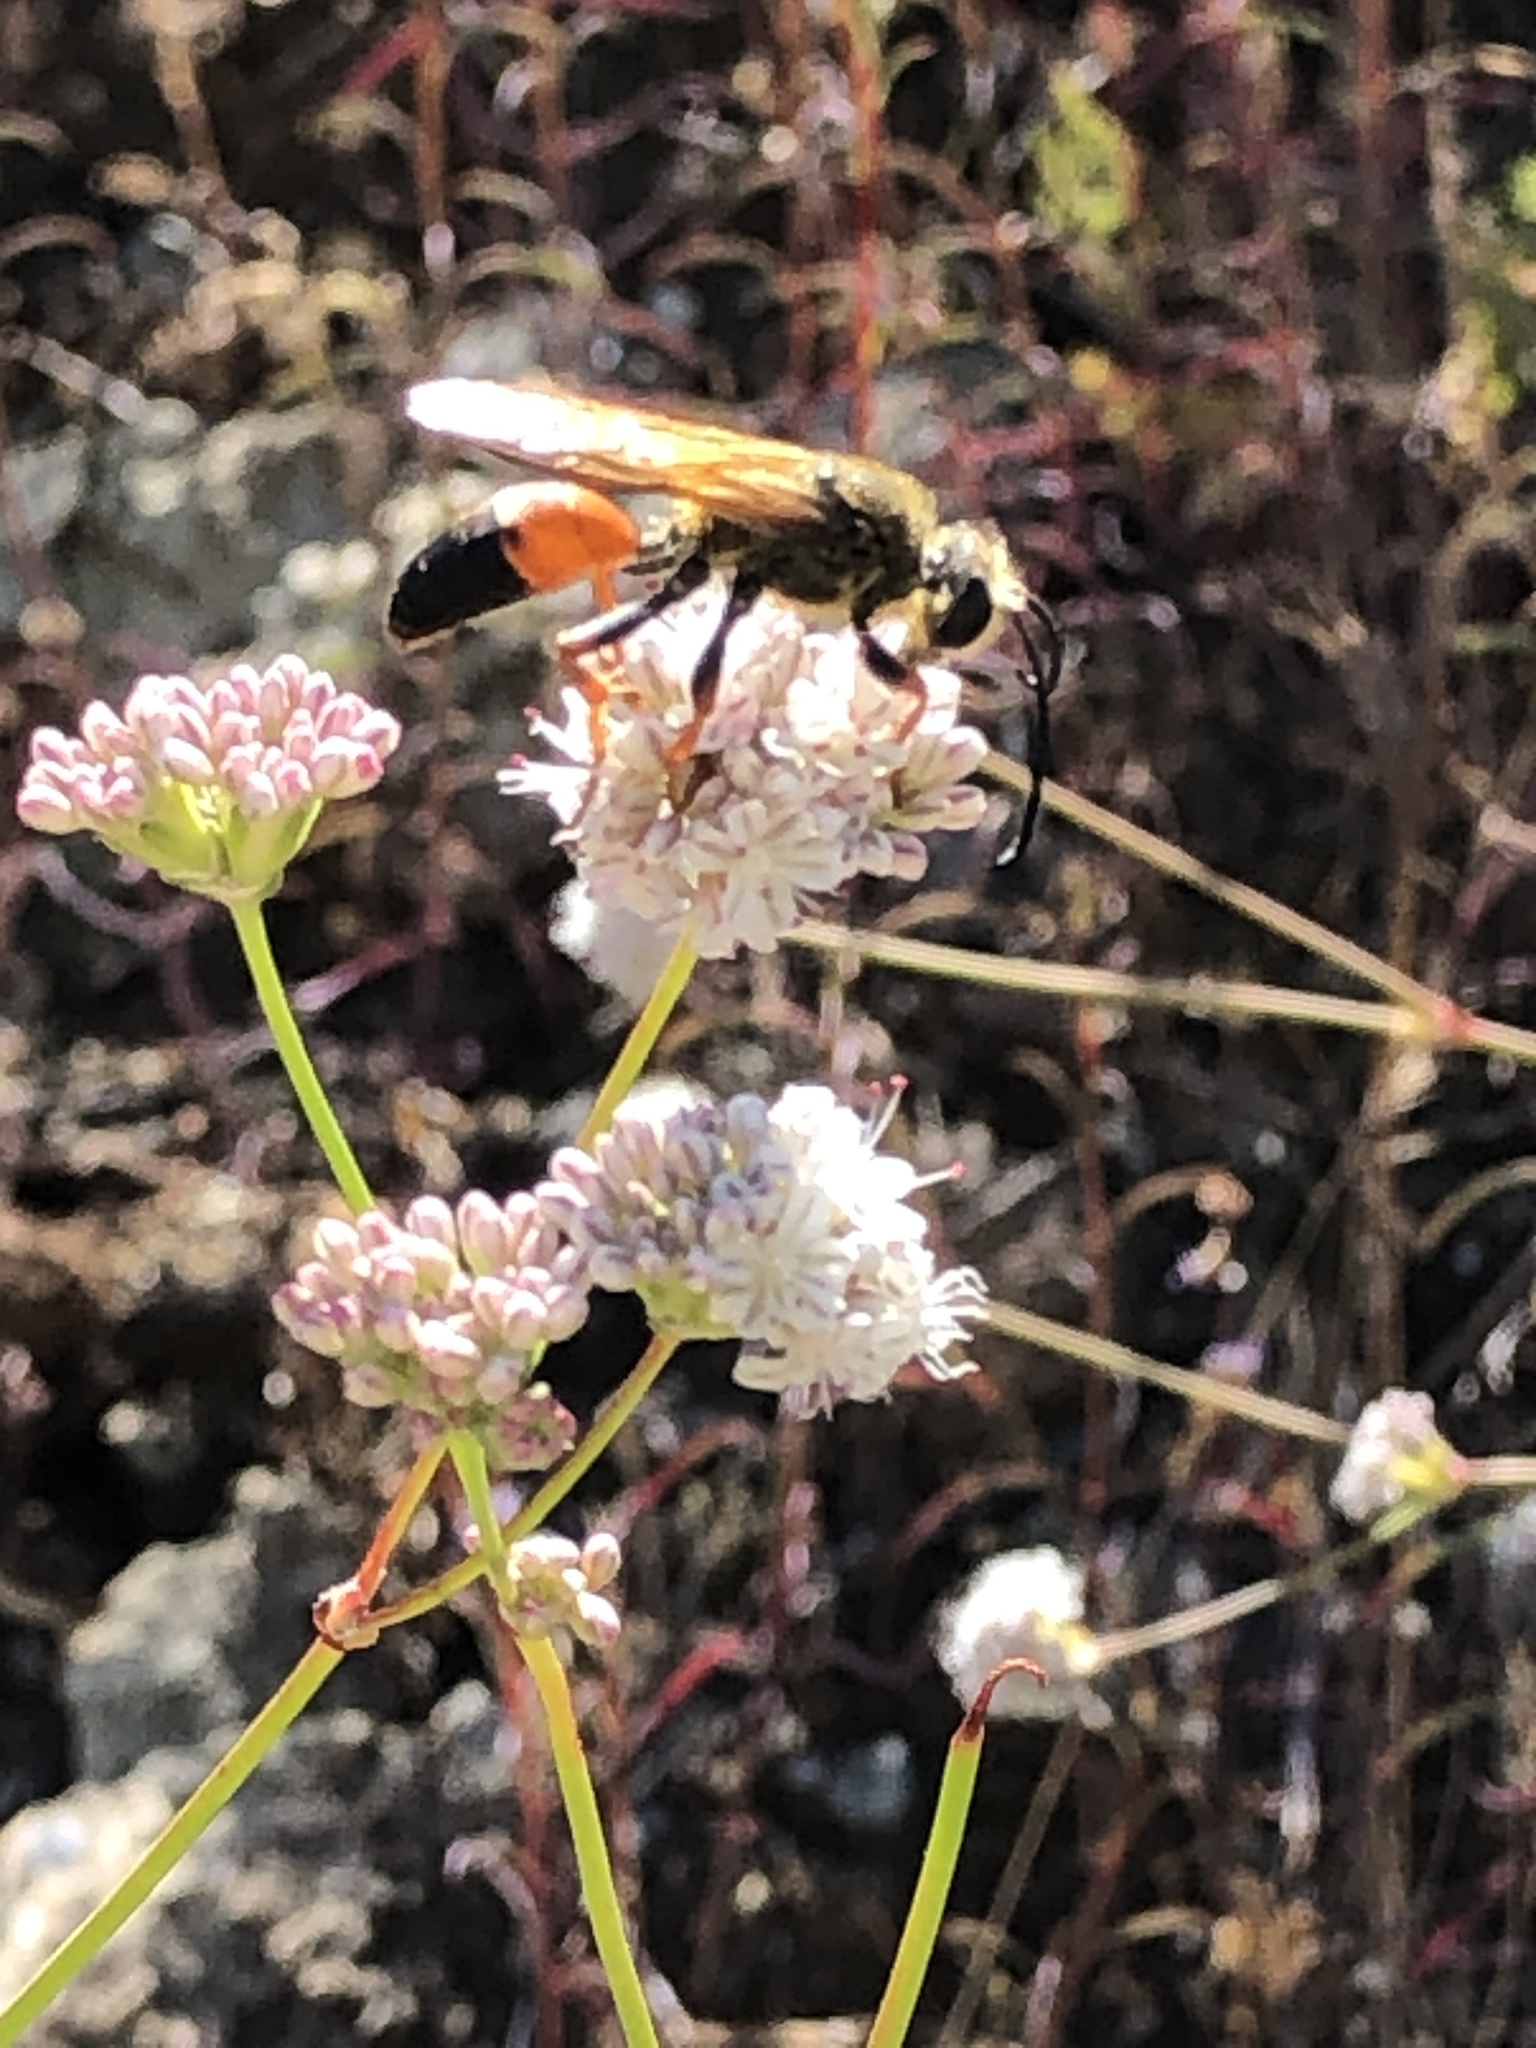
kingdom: Animalia
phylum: Arthropoda
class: Insecta
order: Hymenoptera
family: Sphecidae
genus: Sphex
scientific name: Sphex ichneumoneus
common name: Great golden digger wasp
